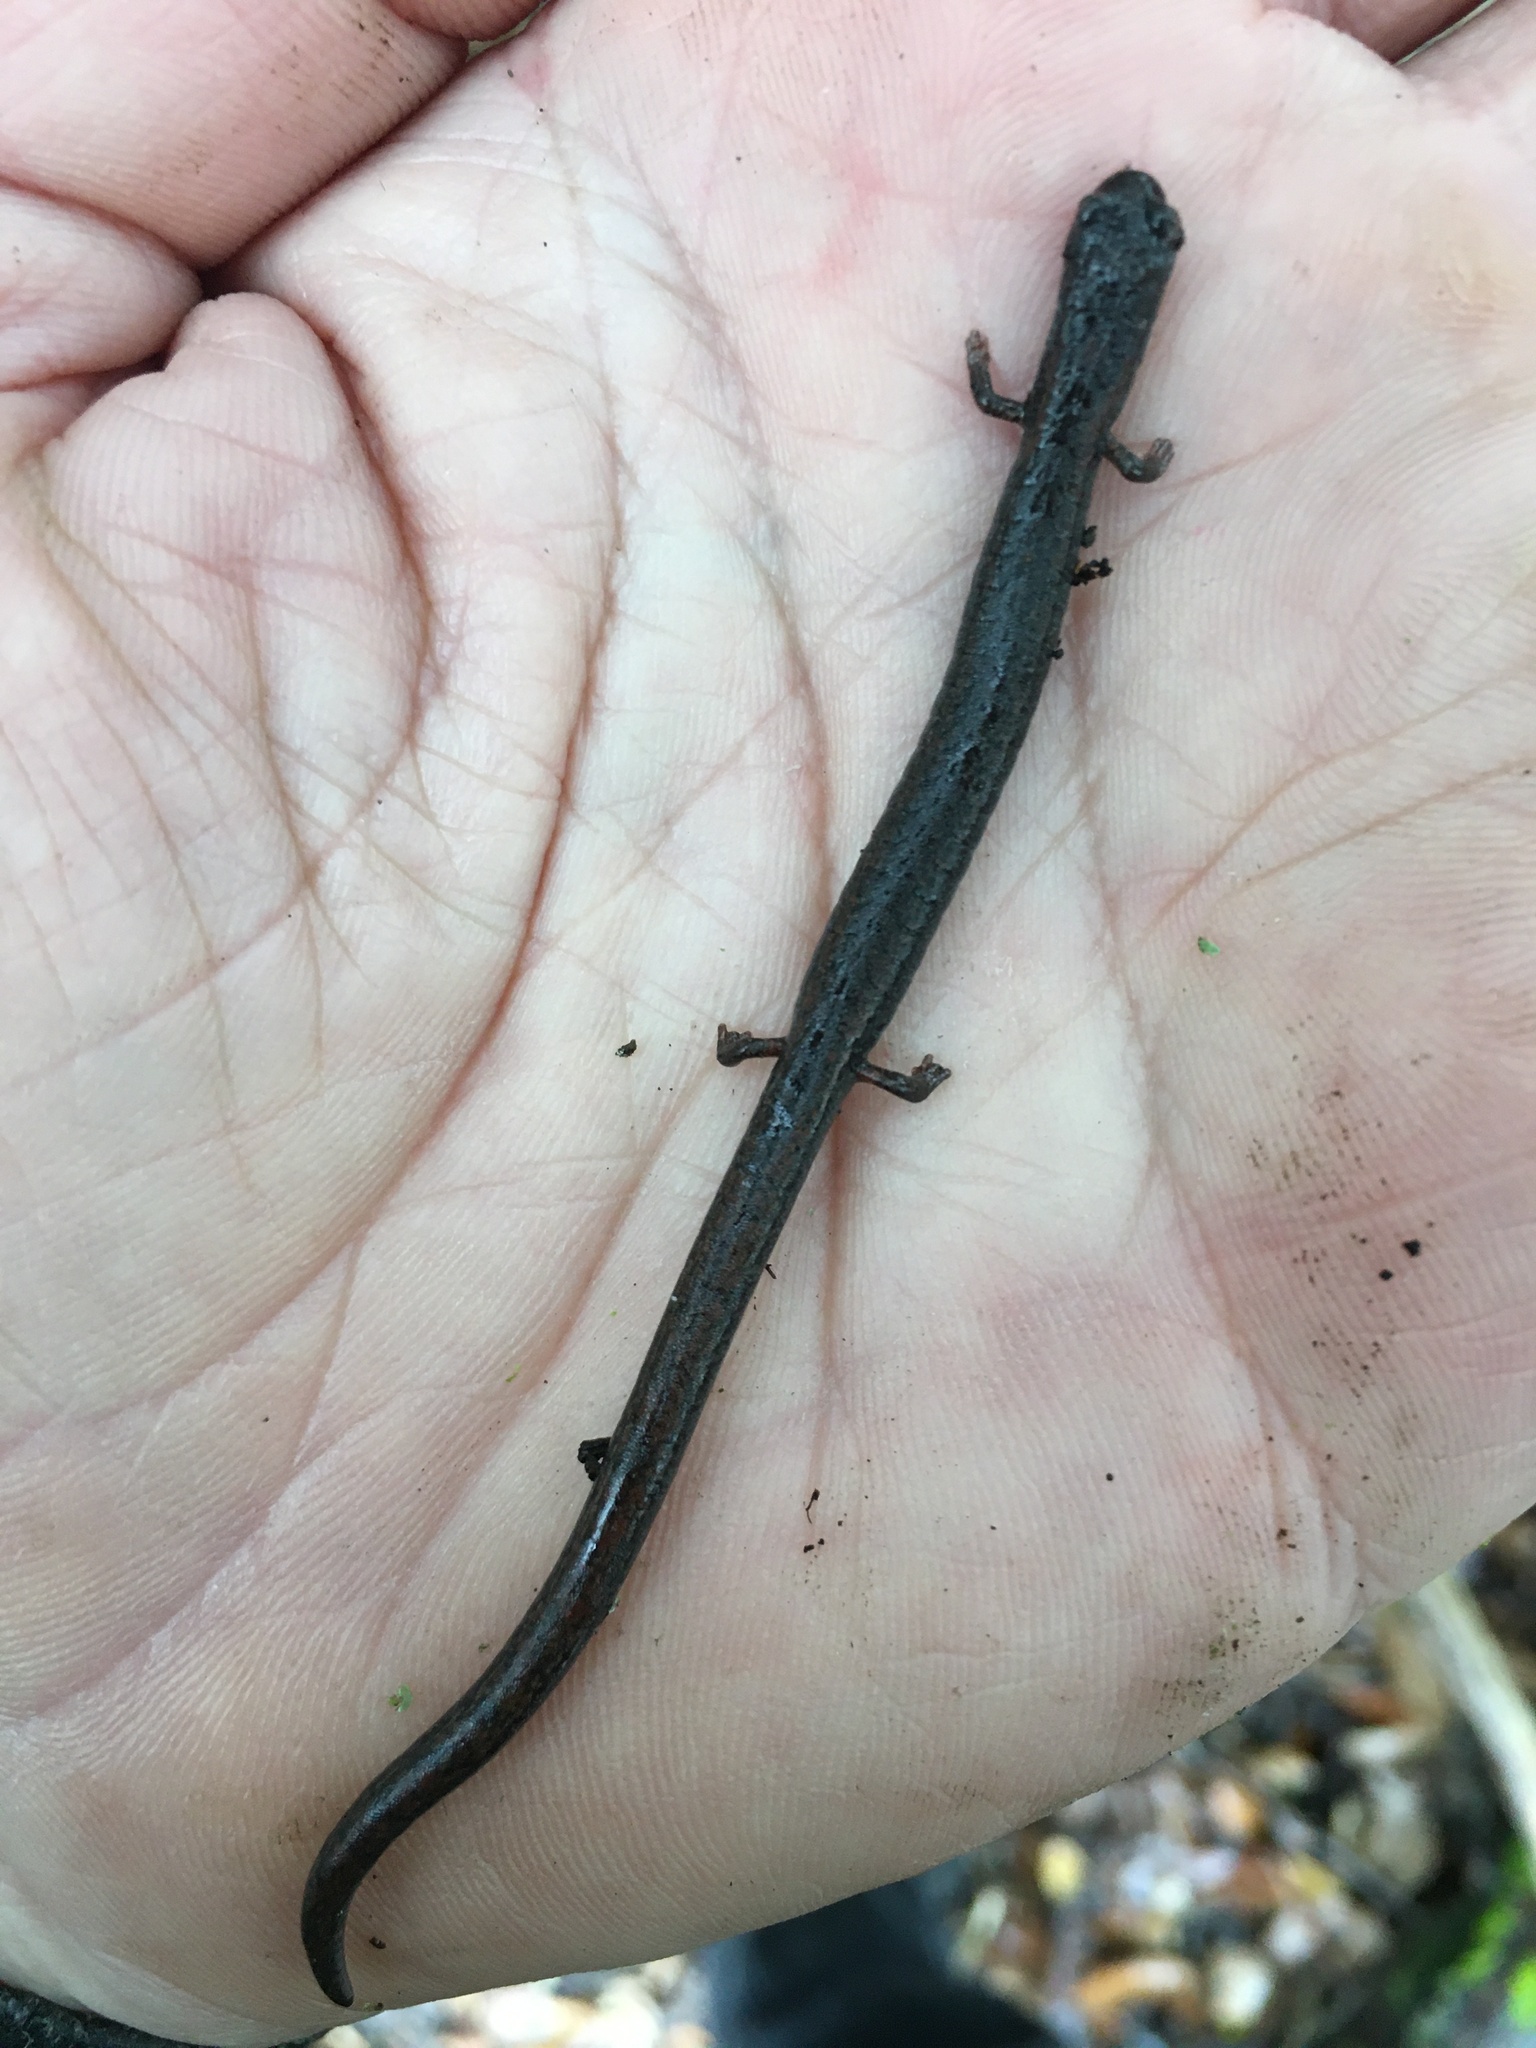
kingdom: Animalia
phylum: Chordata
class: Amphibia
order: Caudata
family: Plethodontidae
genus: Batrachoseps
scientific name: Batrachoseps attenuatus
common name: California slender salamander
